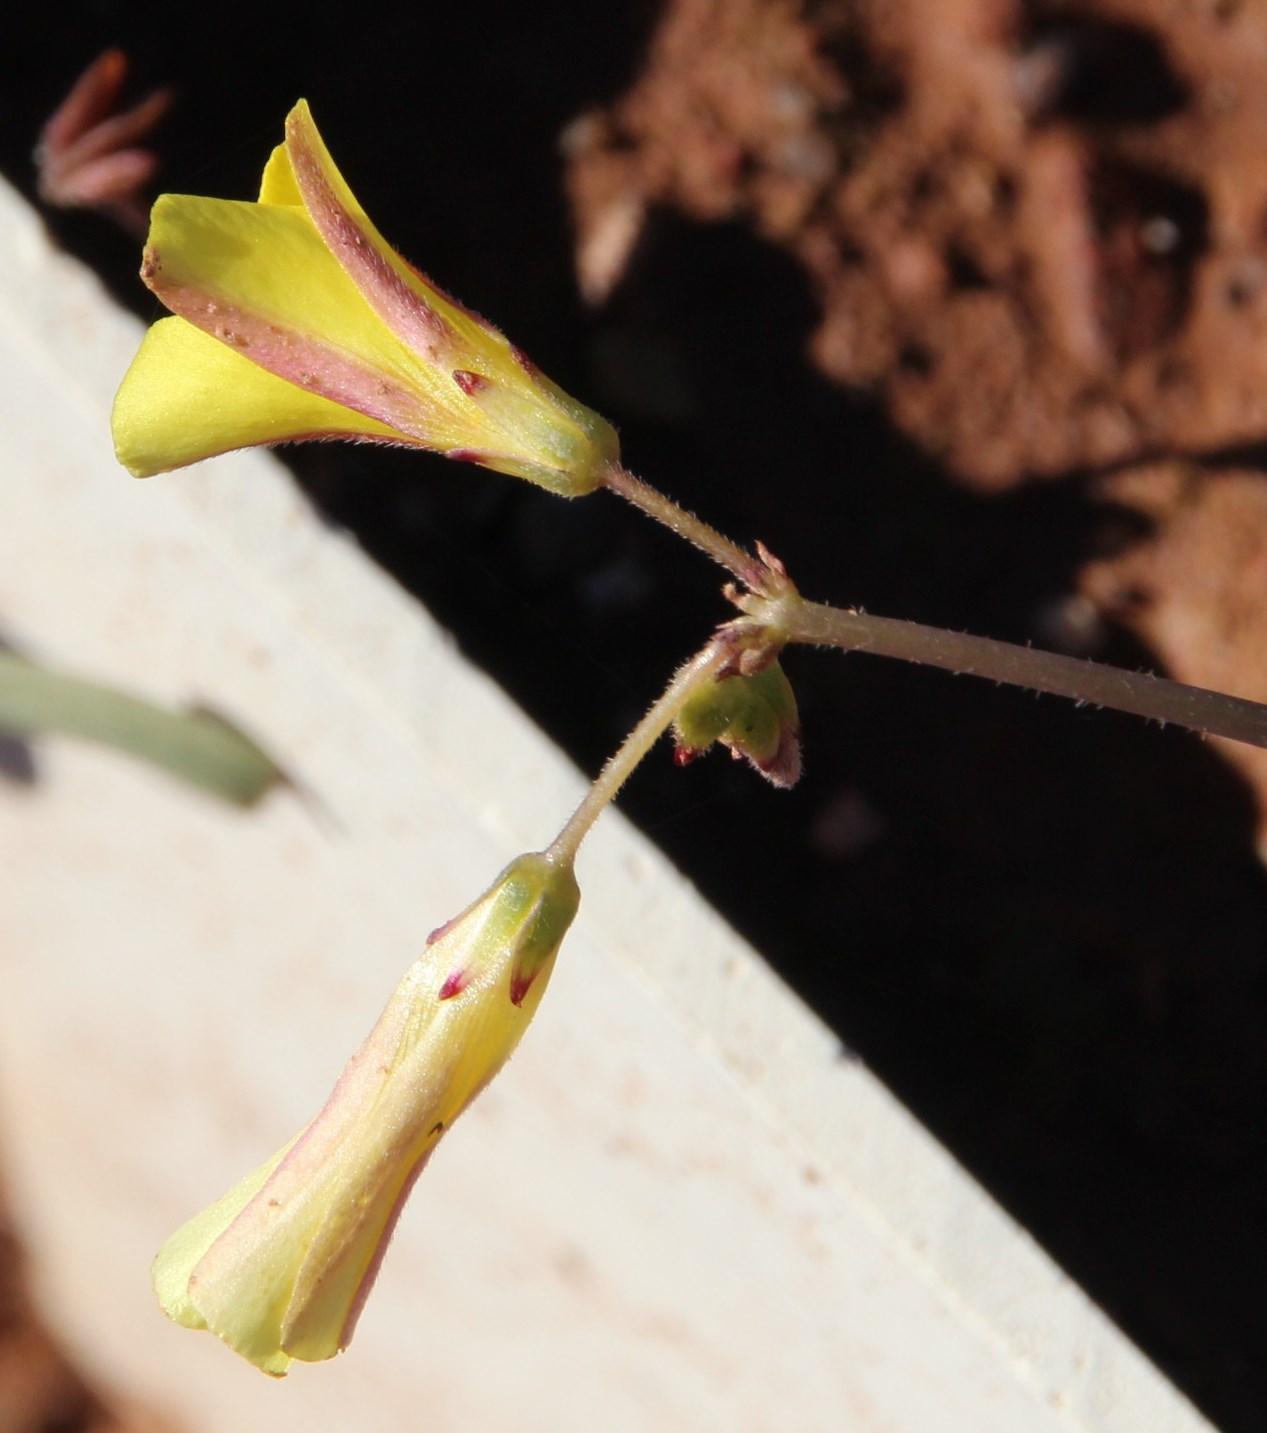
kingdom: Plantae
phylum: Tracheophyta
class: Magnoliopsida
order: Oxalidales
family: Oxalidaceae
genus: Oxalis
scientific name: Oxalis pes-caprae
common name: Bermuda-buttercup
